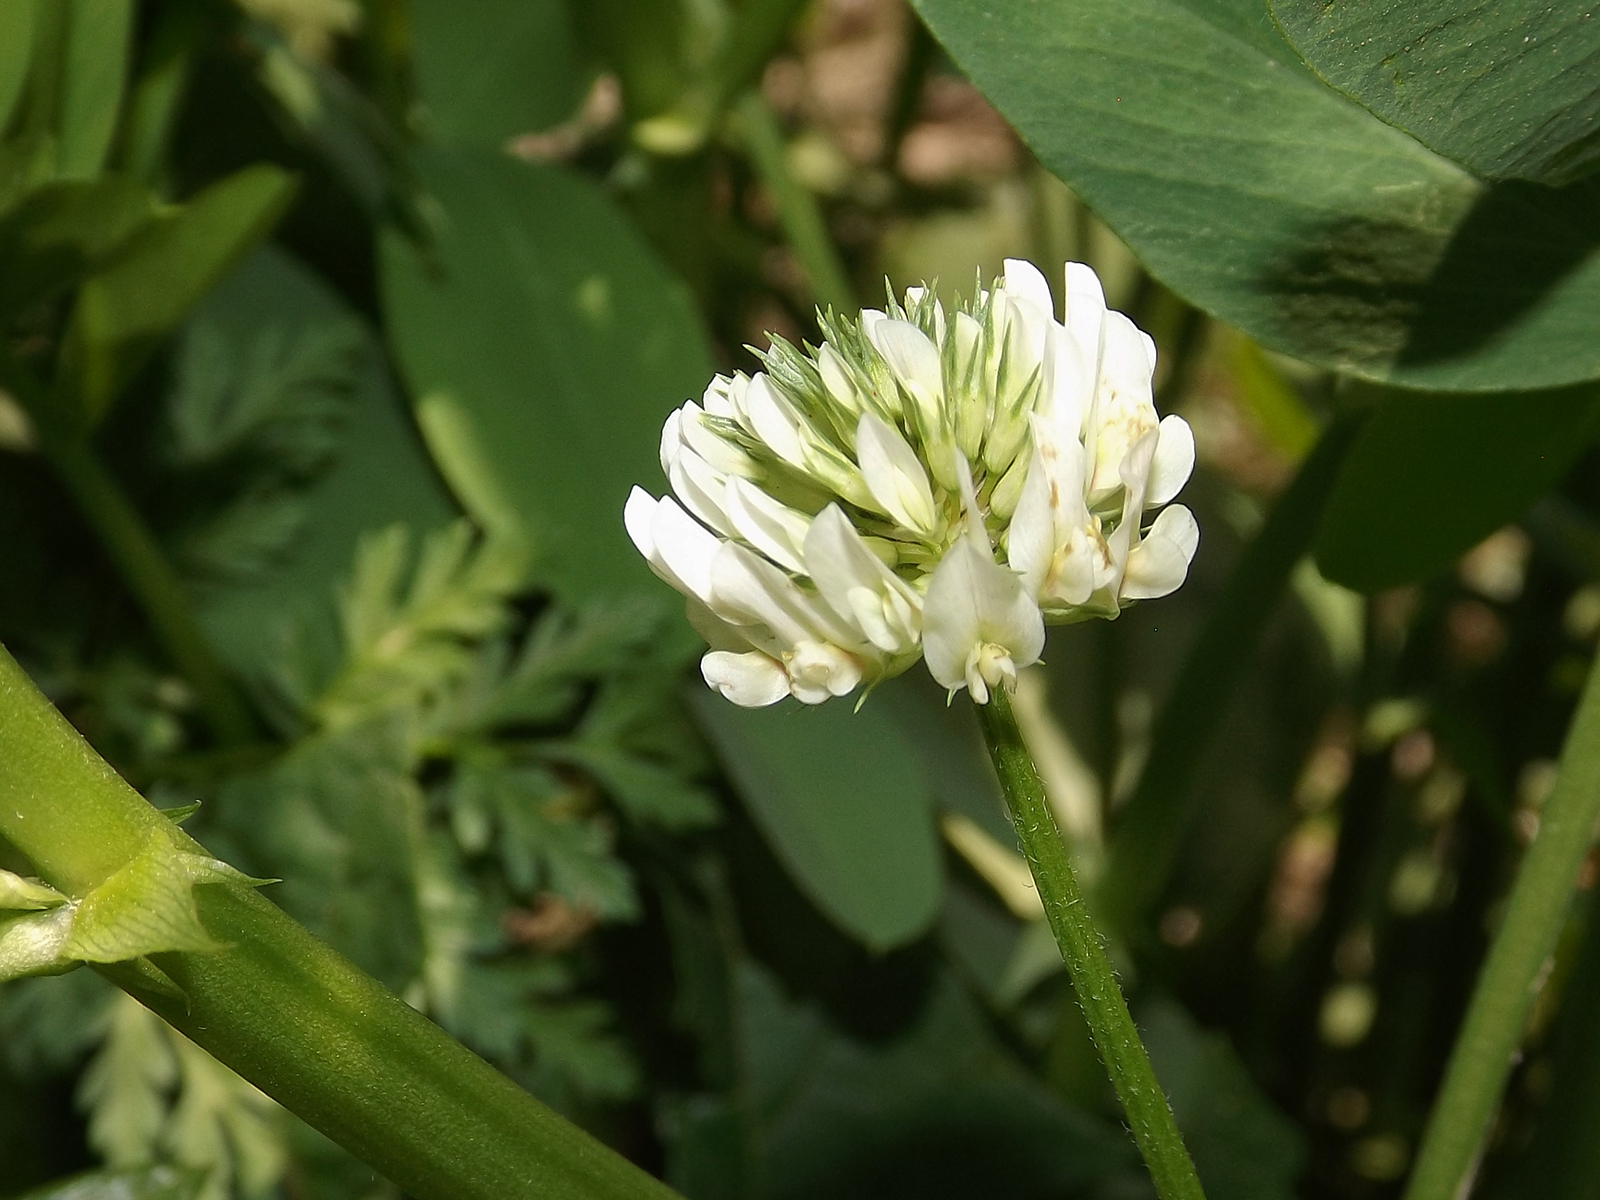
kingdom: Plantae
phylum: Tracheophyta
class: Magnoliopsida
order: Fabales
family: Fabaceae
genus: Trifolium
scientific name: Trifolium repens
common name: White clover
